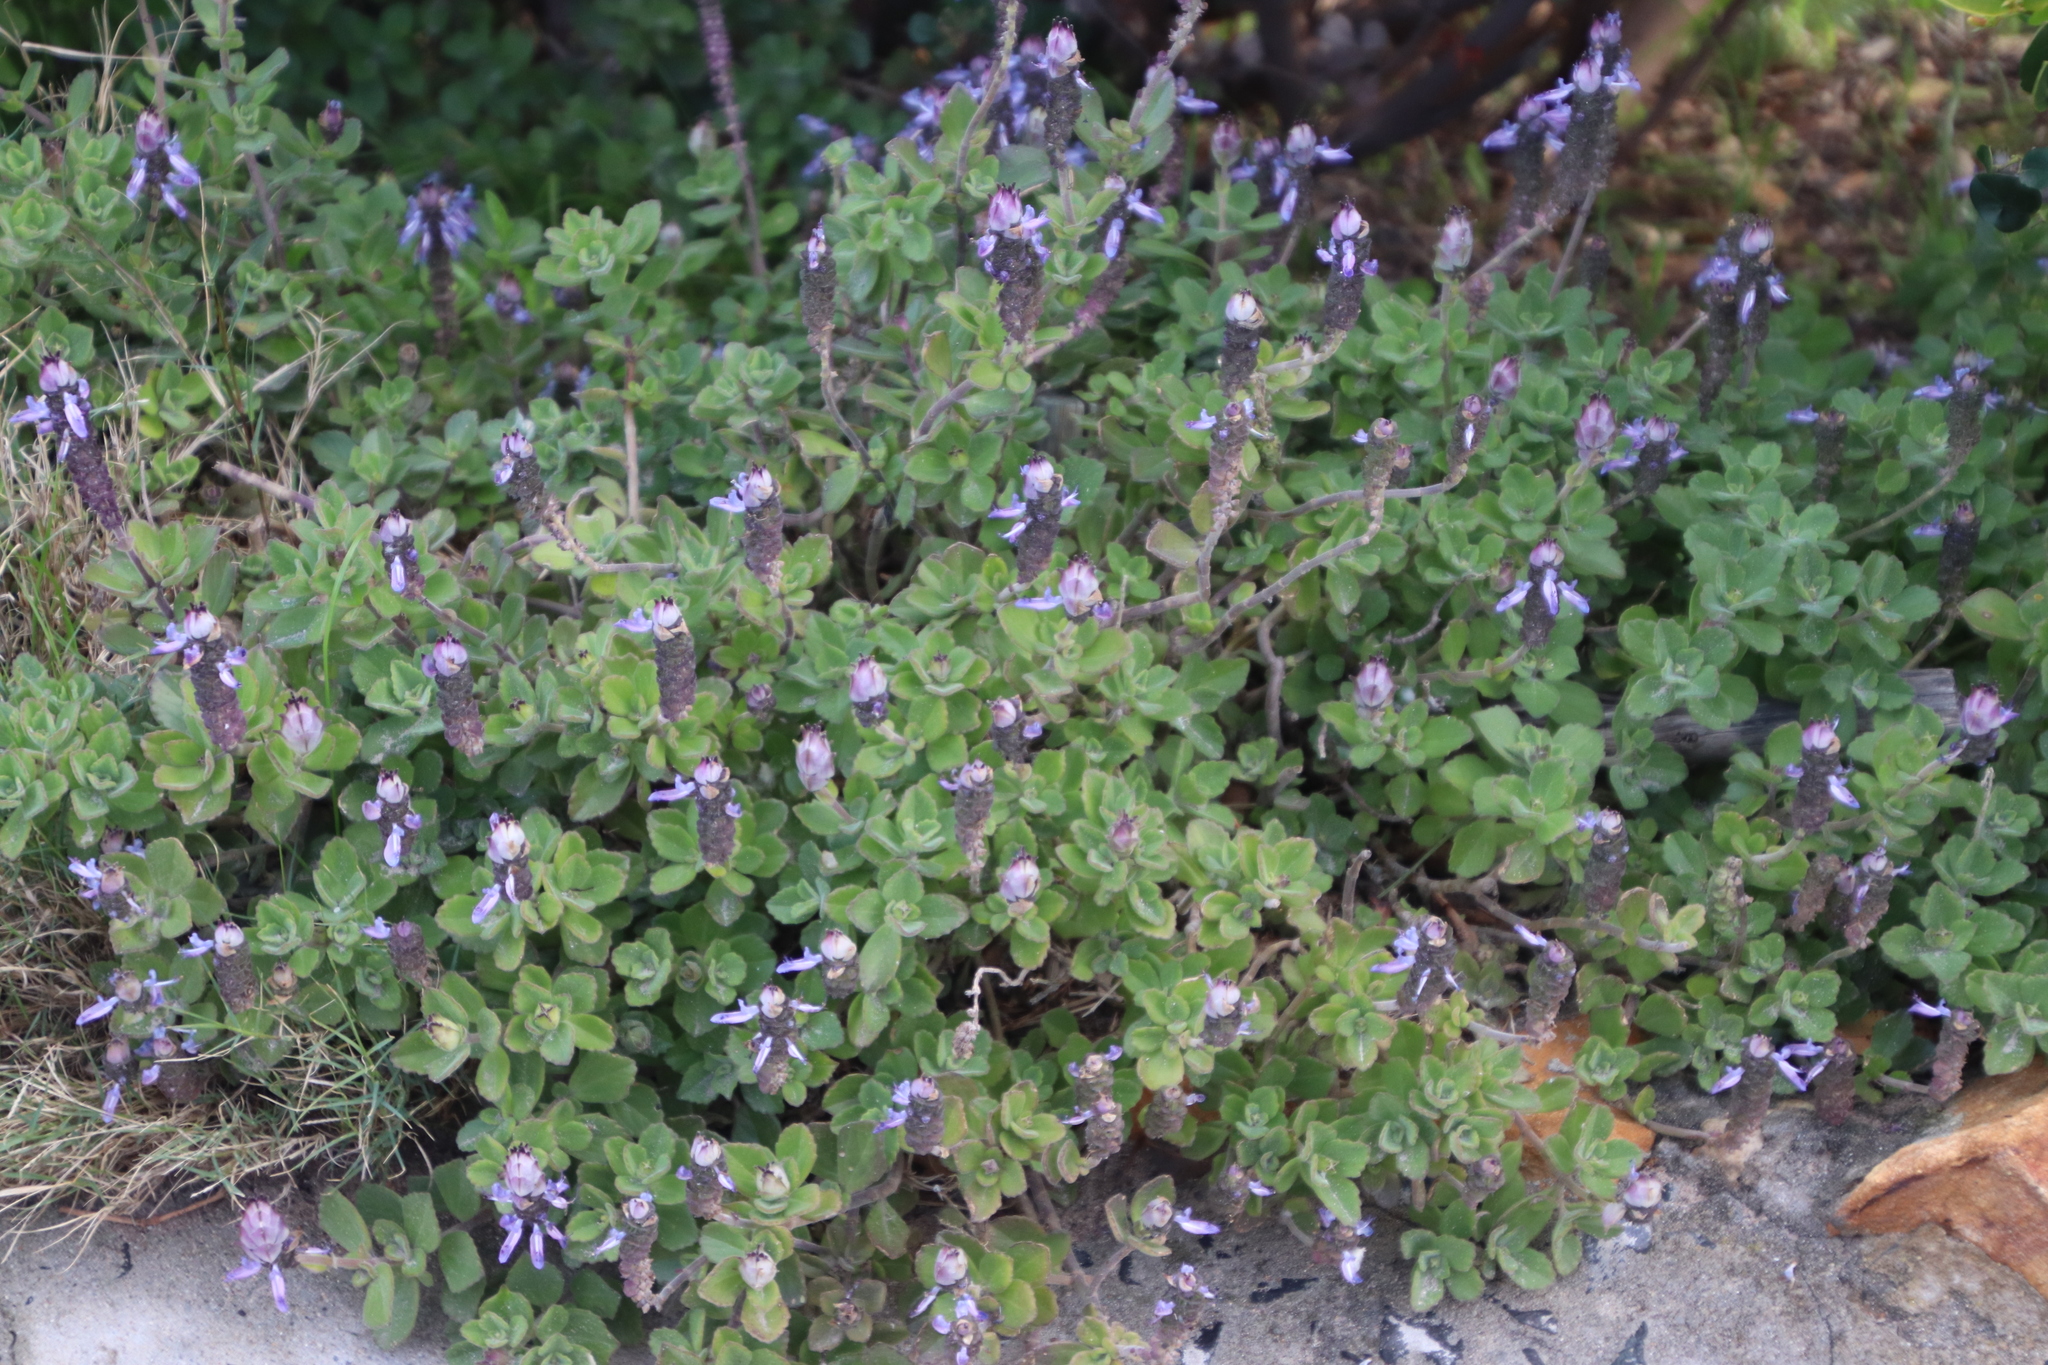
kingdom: Plantae
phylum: Tracheophyta
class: Magnoliopsida
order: Lamiales
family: Lamiaceae
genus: Coleus
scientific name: Coleus neochilus
